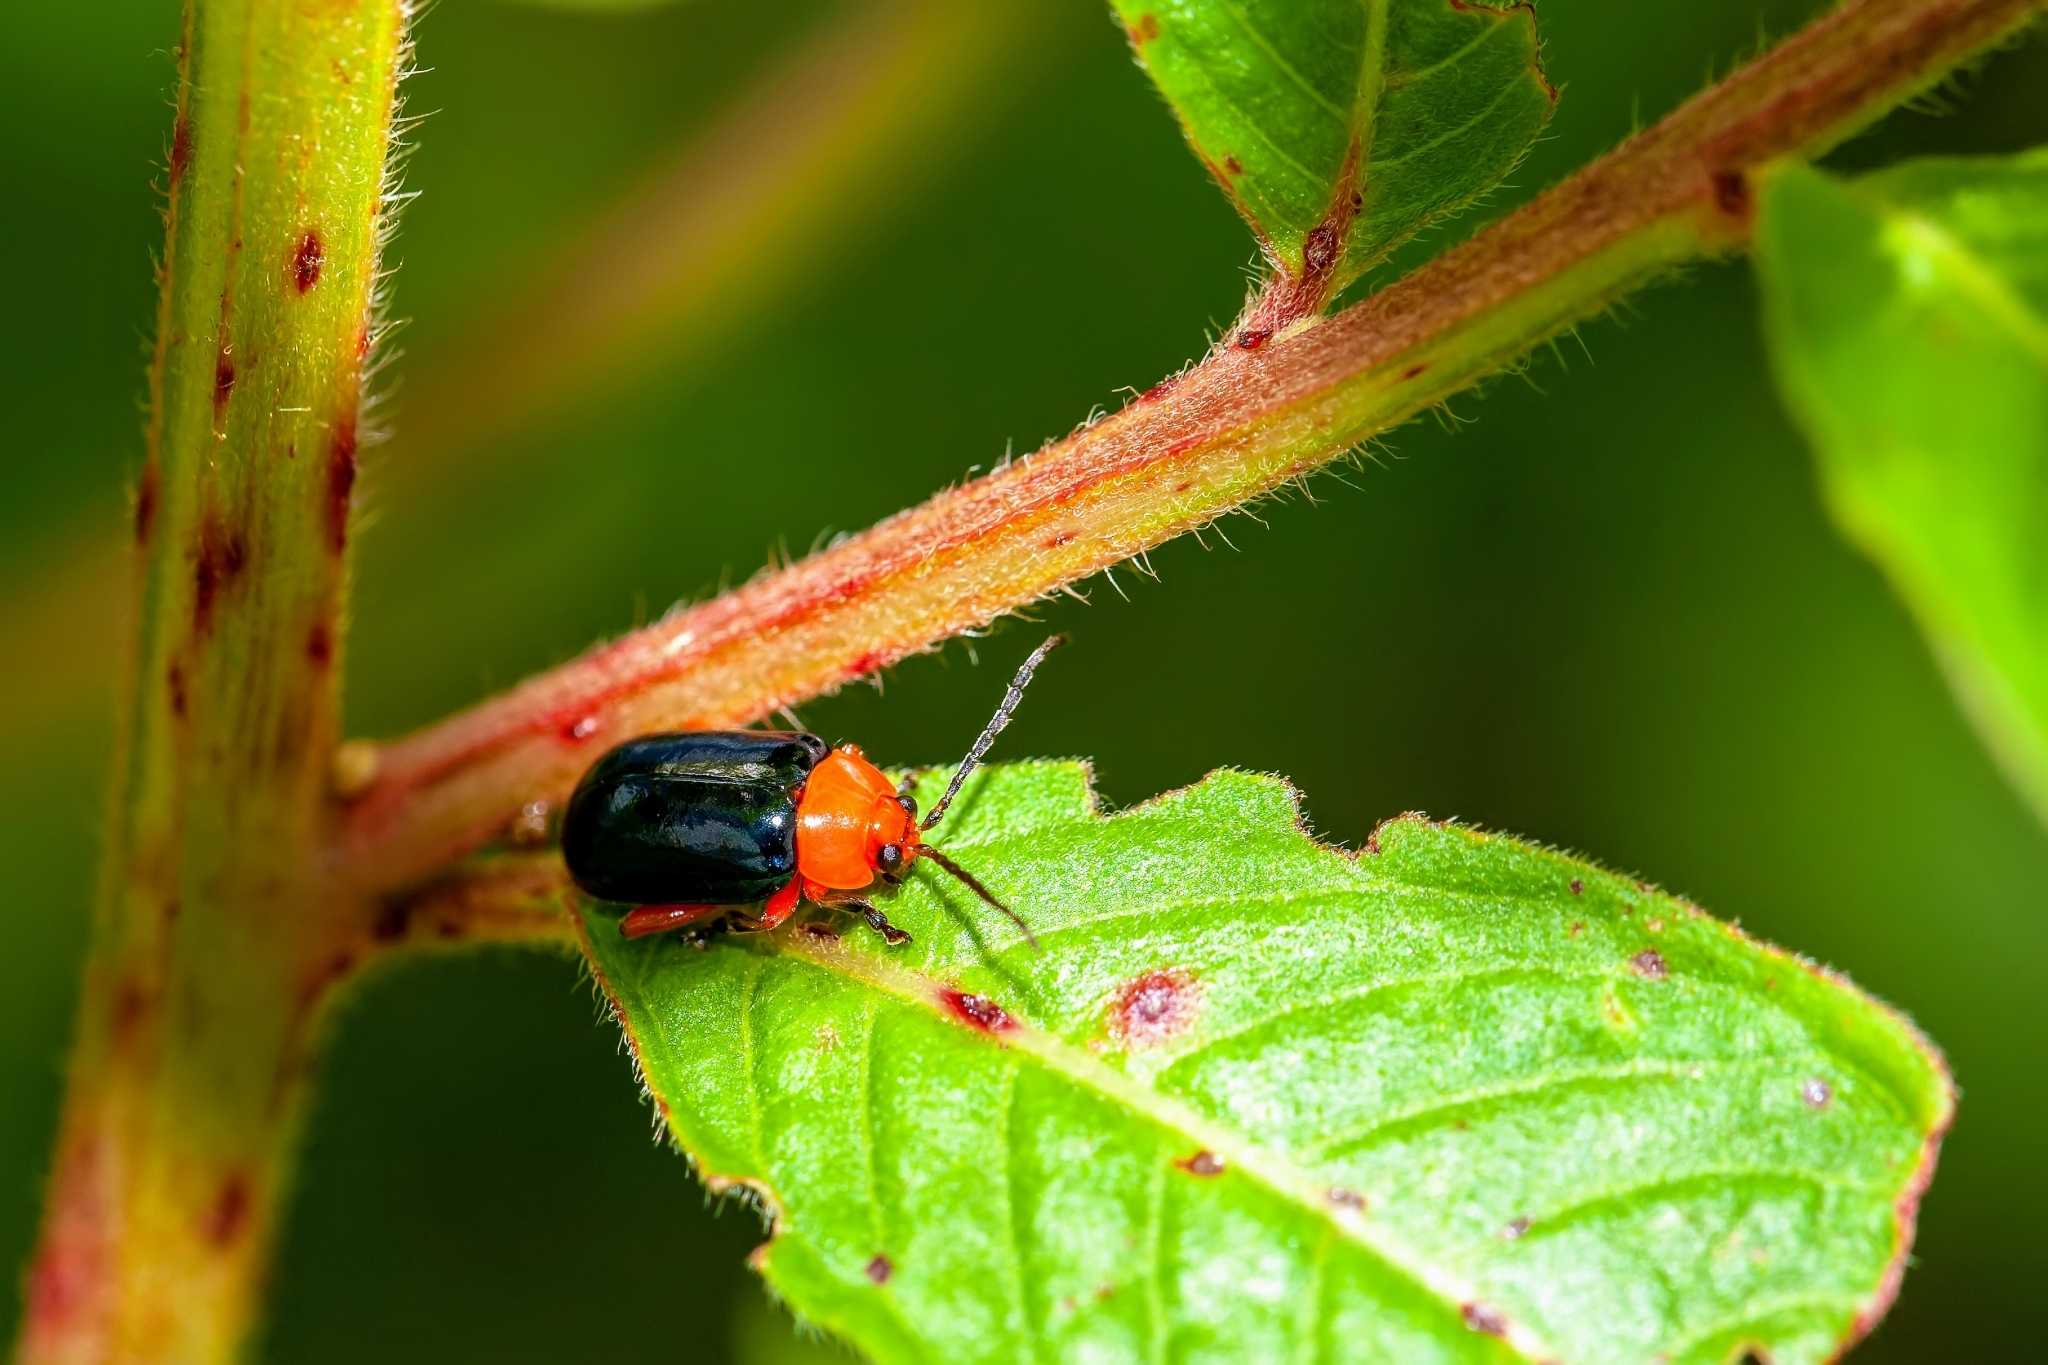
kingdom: Animalia
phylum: Arthropoda
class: Insecta
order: Coleoptera
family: Chrysomelidae
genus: Asphaera
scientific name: Asphaera lustrans
